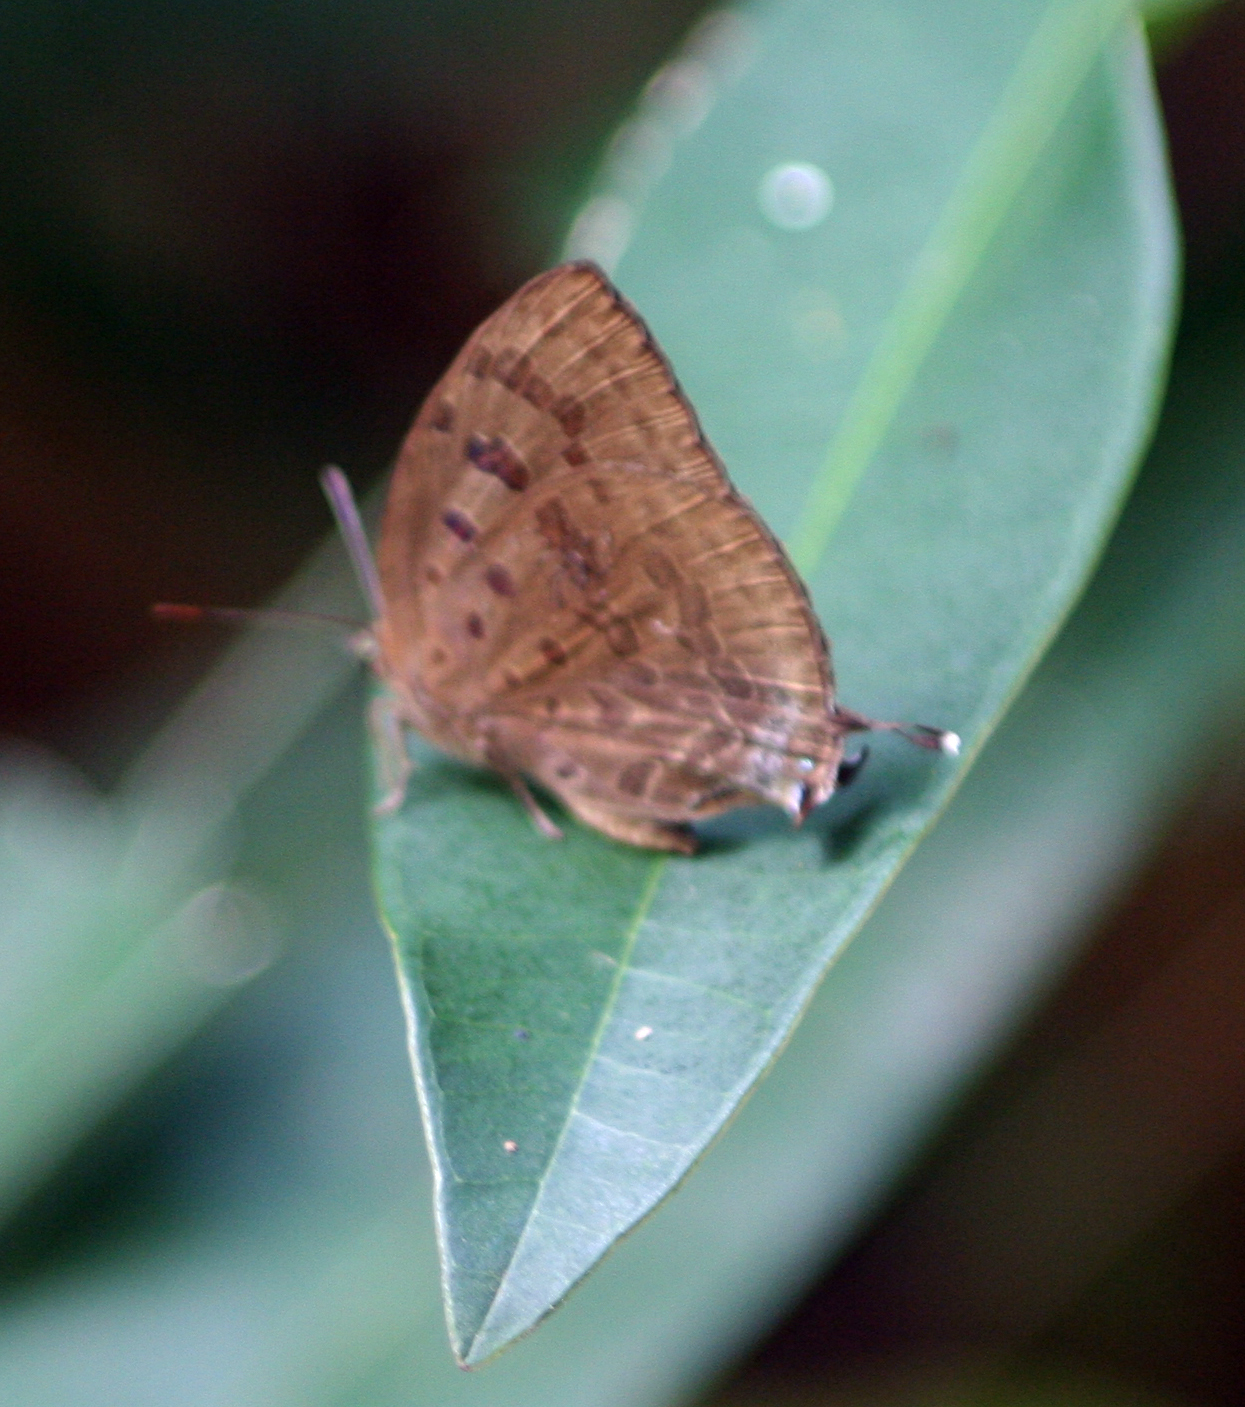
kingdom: Animalia
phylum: Arthropoda
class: Insecta
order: Lepidoptera
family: Lycaenidae
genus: Arhopala
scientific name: Arhopala
